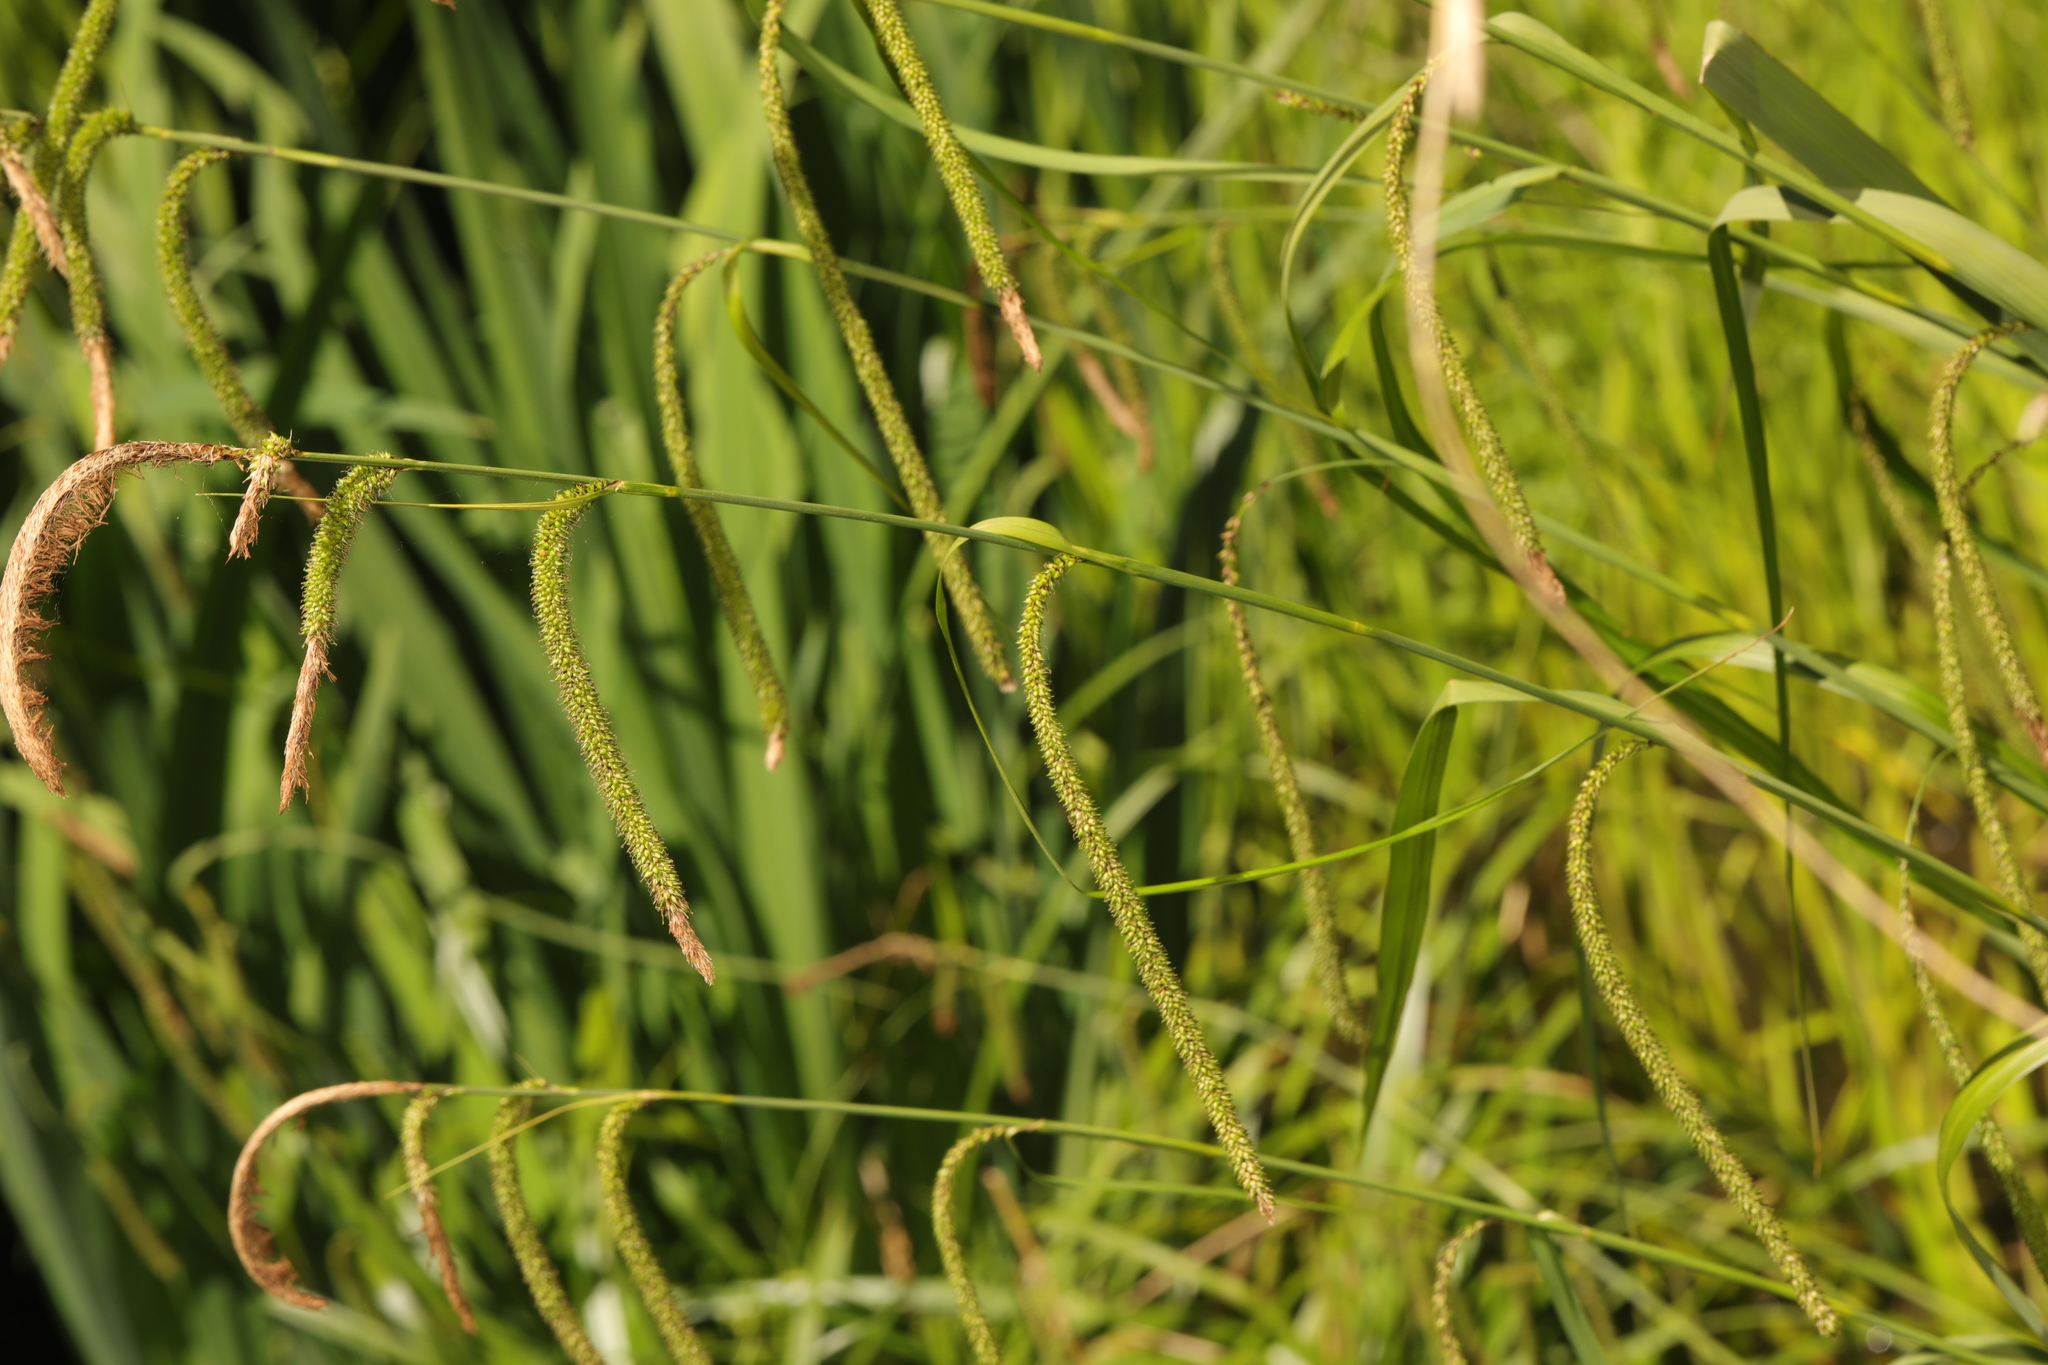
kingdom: Plantae
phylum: Tracheophyta
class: Liliopsida
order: Poales
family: Cyperaceae
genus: Carex
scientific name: Carex pendula
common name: Pendulous sedge
